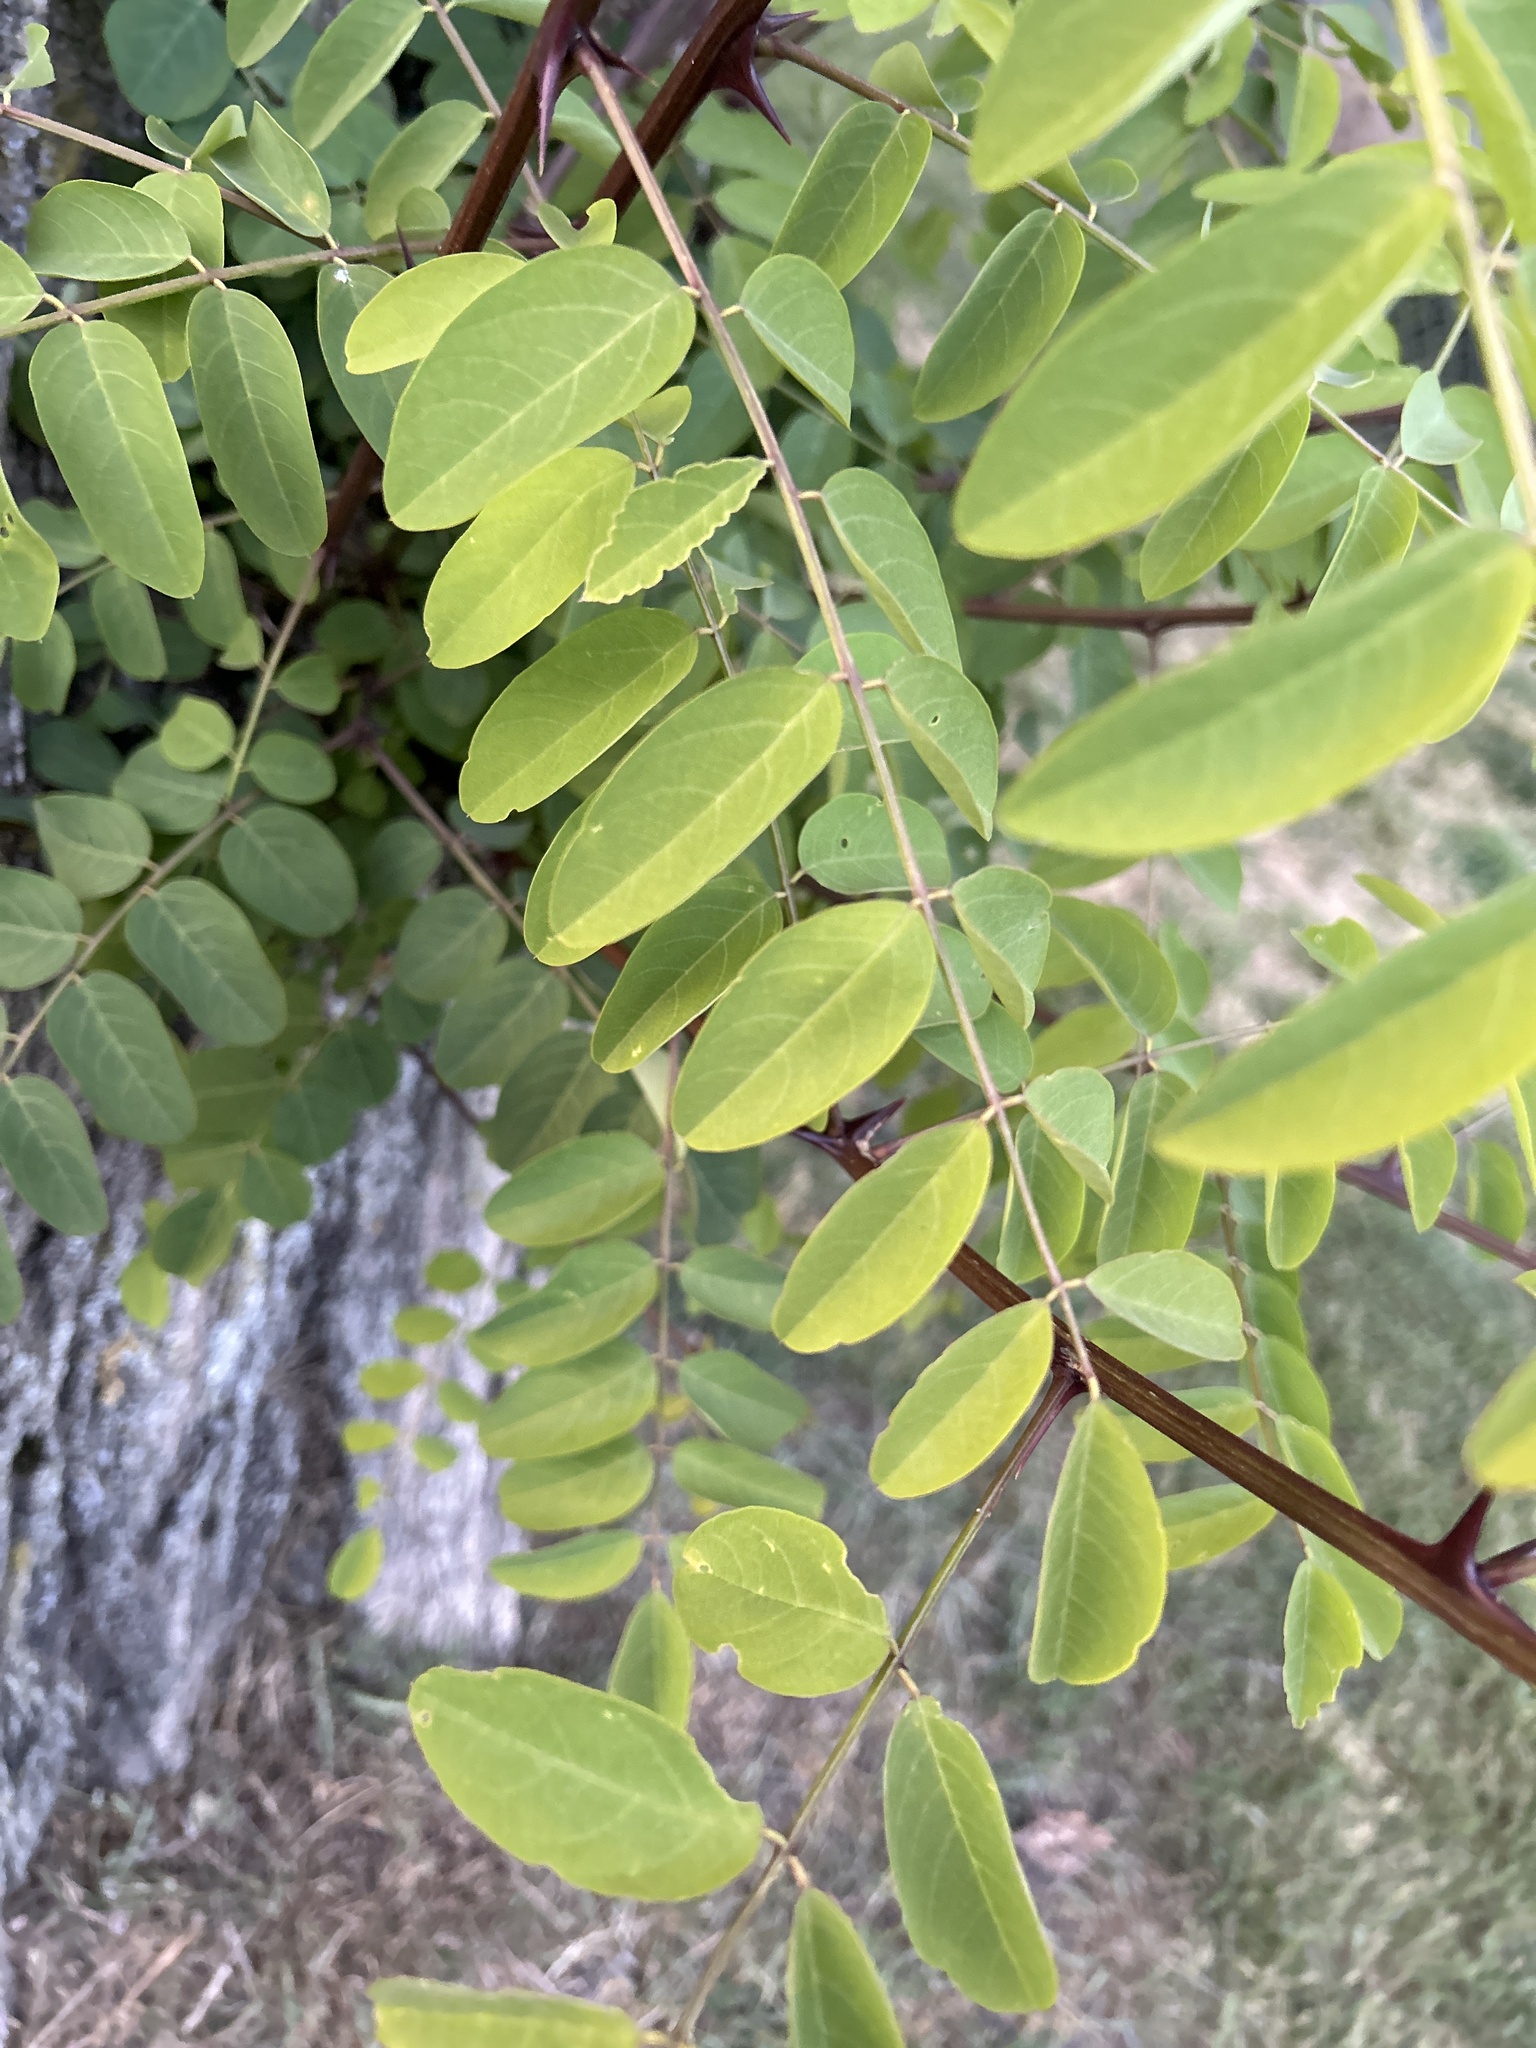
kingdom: Plantae
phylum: Tracheophyta
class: Magnoliopsida
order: Fabales
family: Fabaceae
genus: Robinia
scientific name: Robinia pseudoacacia
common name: Black locust
